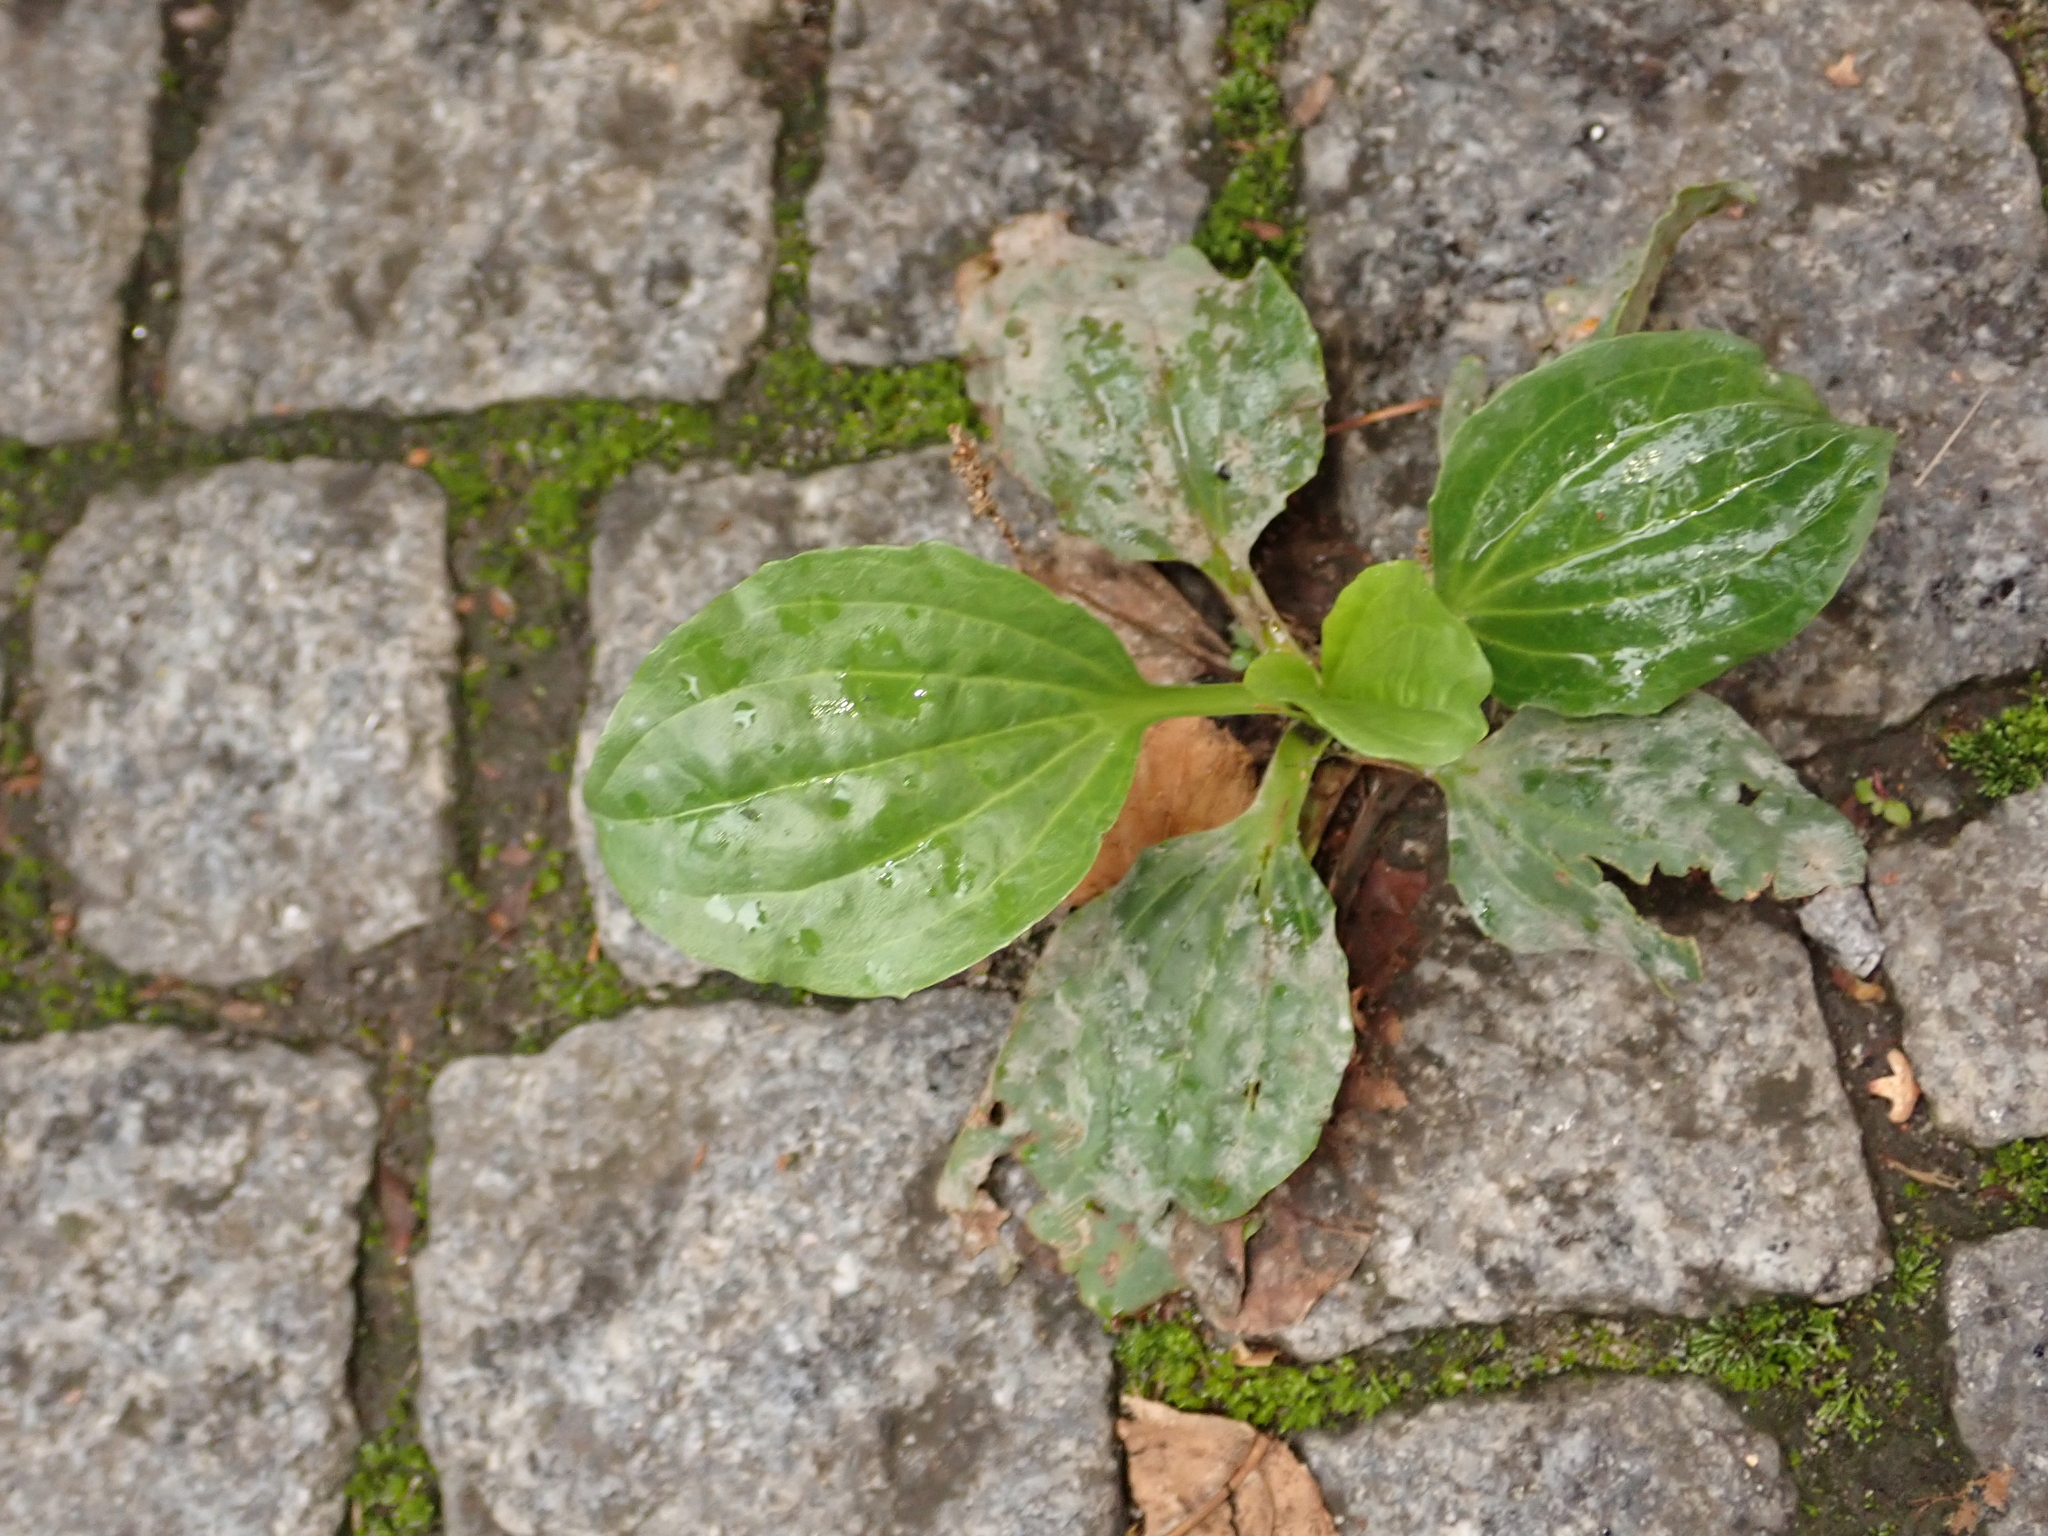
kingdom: Plantae
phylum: Tracheophyta
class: Magnoliopsida
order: Lamiales
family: Plantaginaceae
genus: Plantago
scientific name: Plantago major
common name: Common plantain
